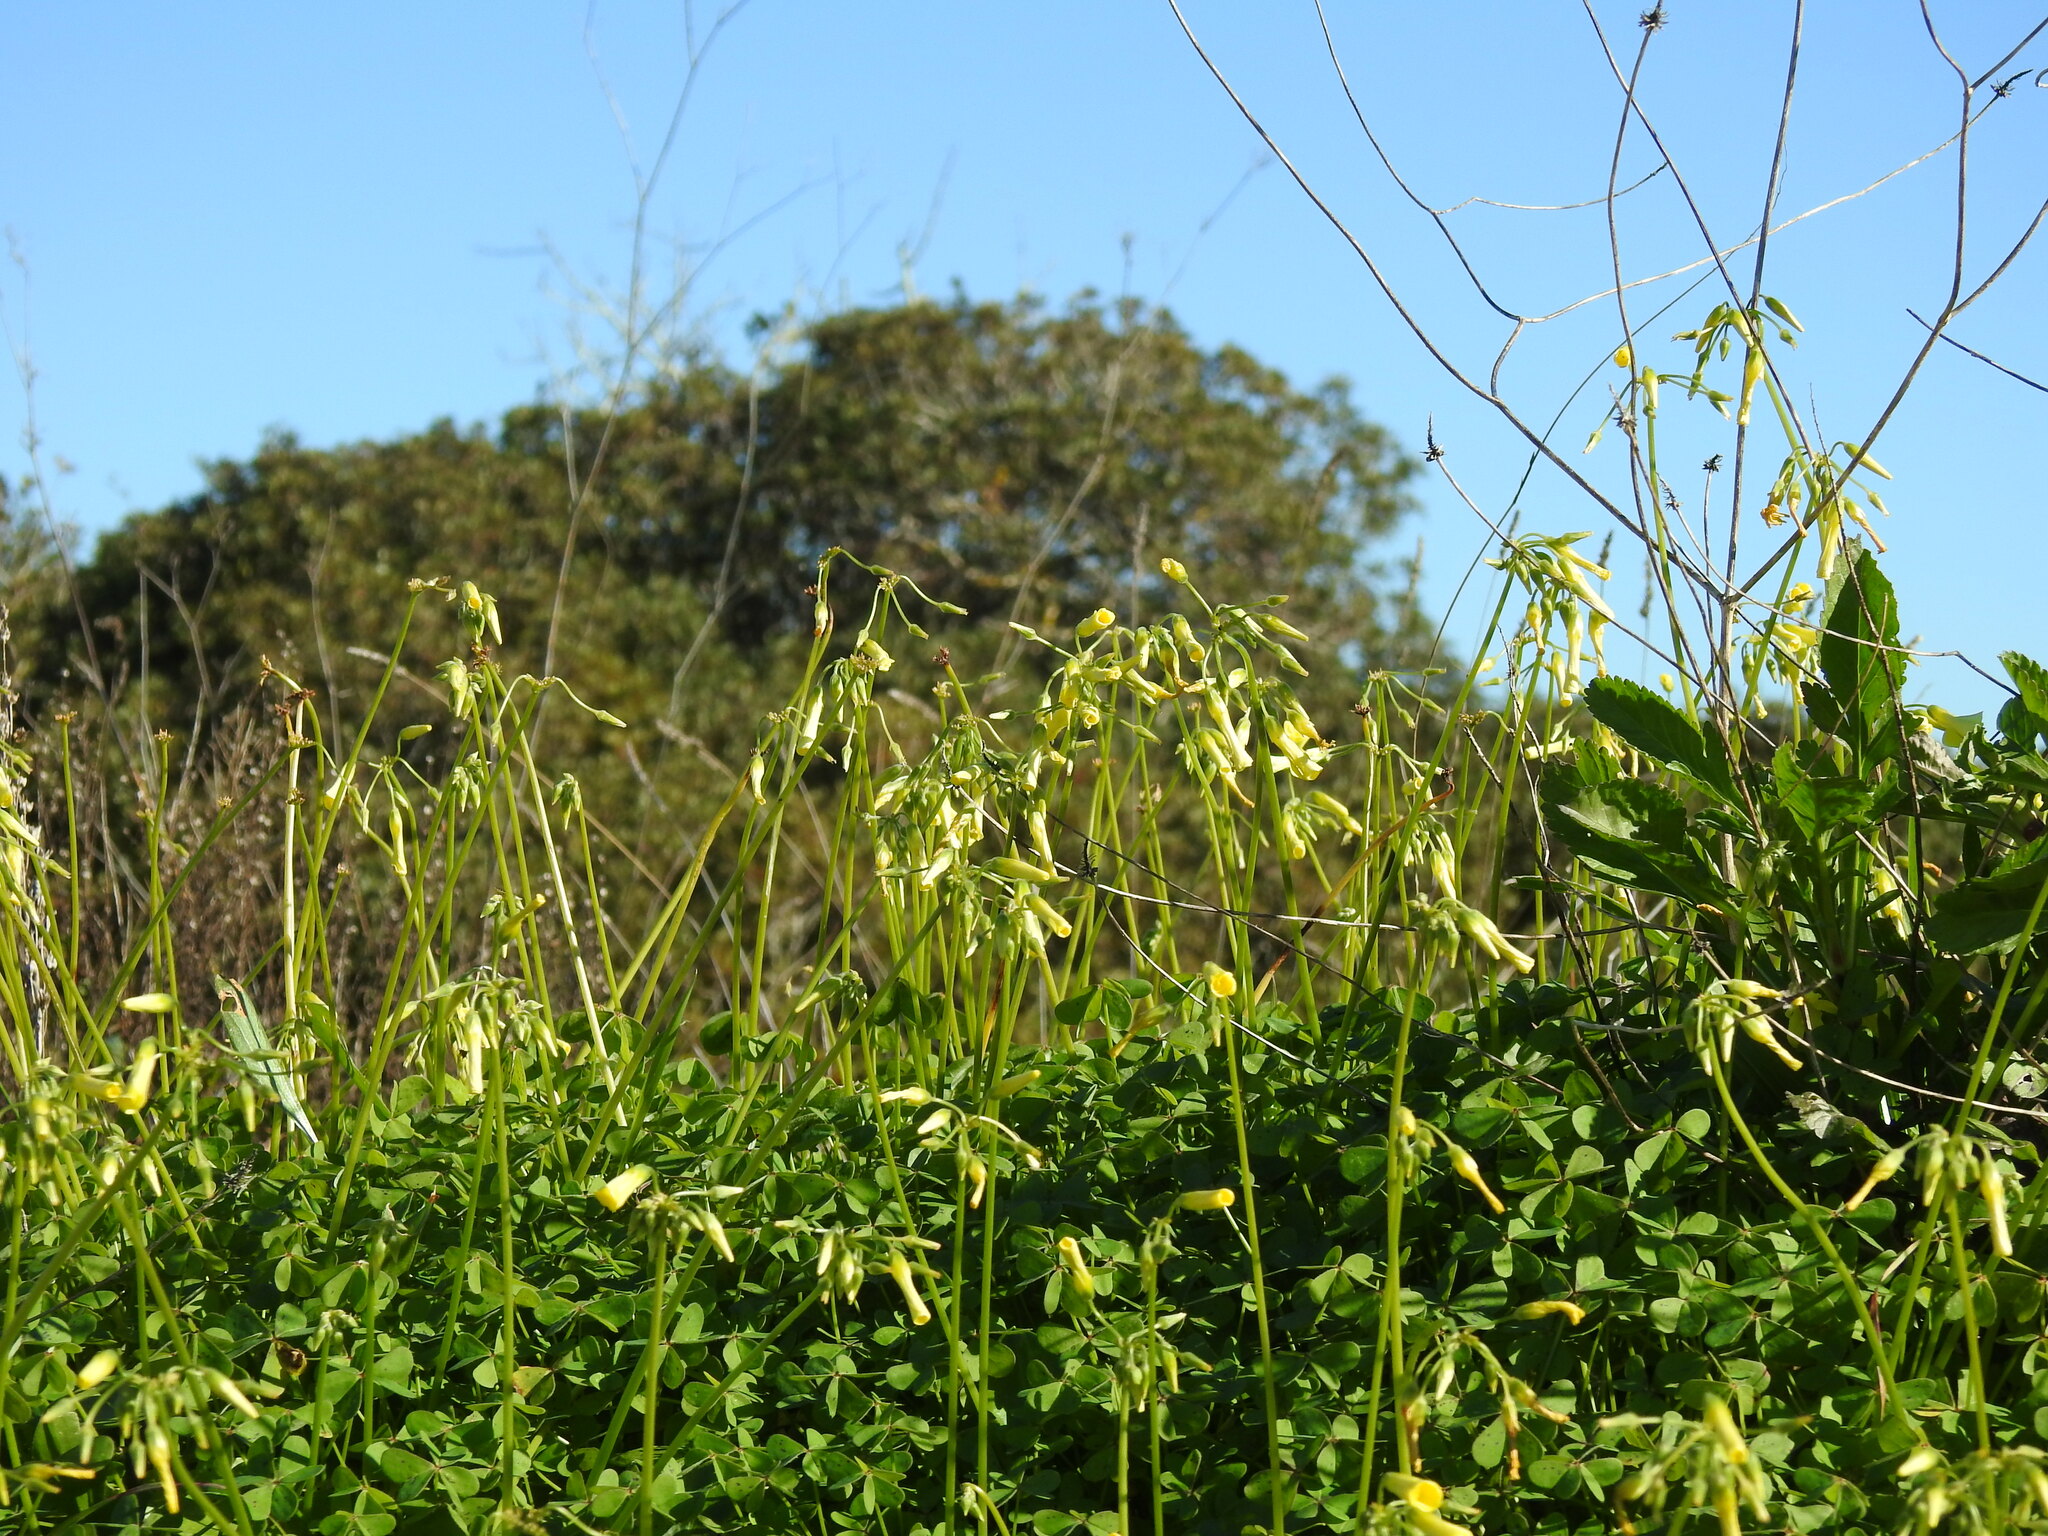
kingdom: Plantae
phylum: Tracheophyta
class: Magnoliopsida
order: Oxalidales
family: Oxalidaceae
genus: Oxalis
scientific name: Oxalis pes-caprae
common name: Bermuda-buttercup
